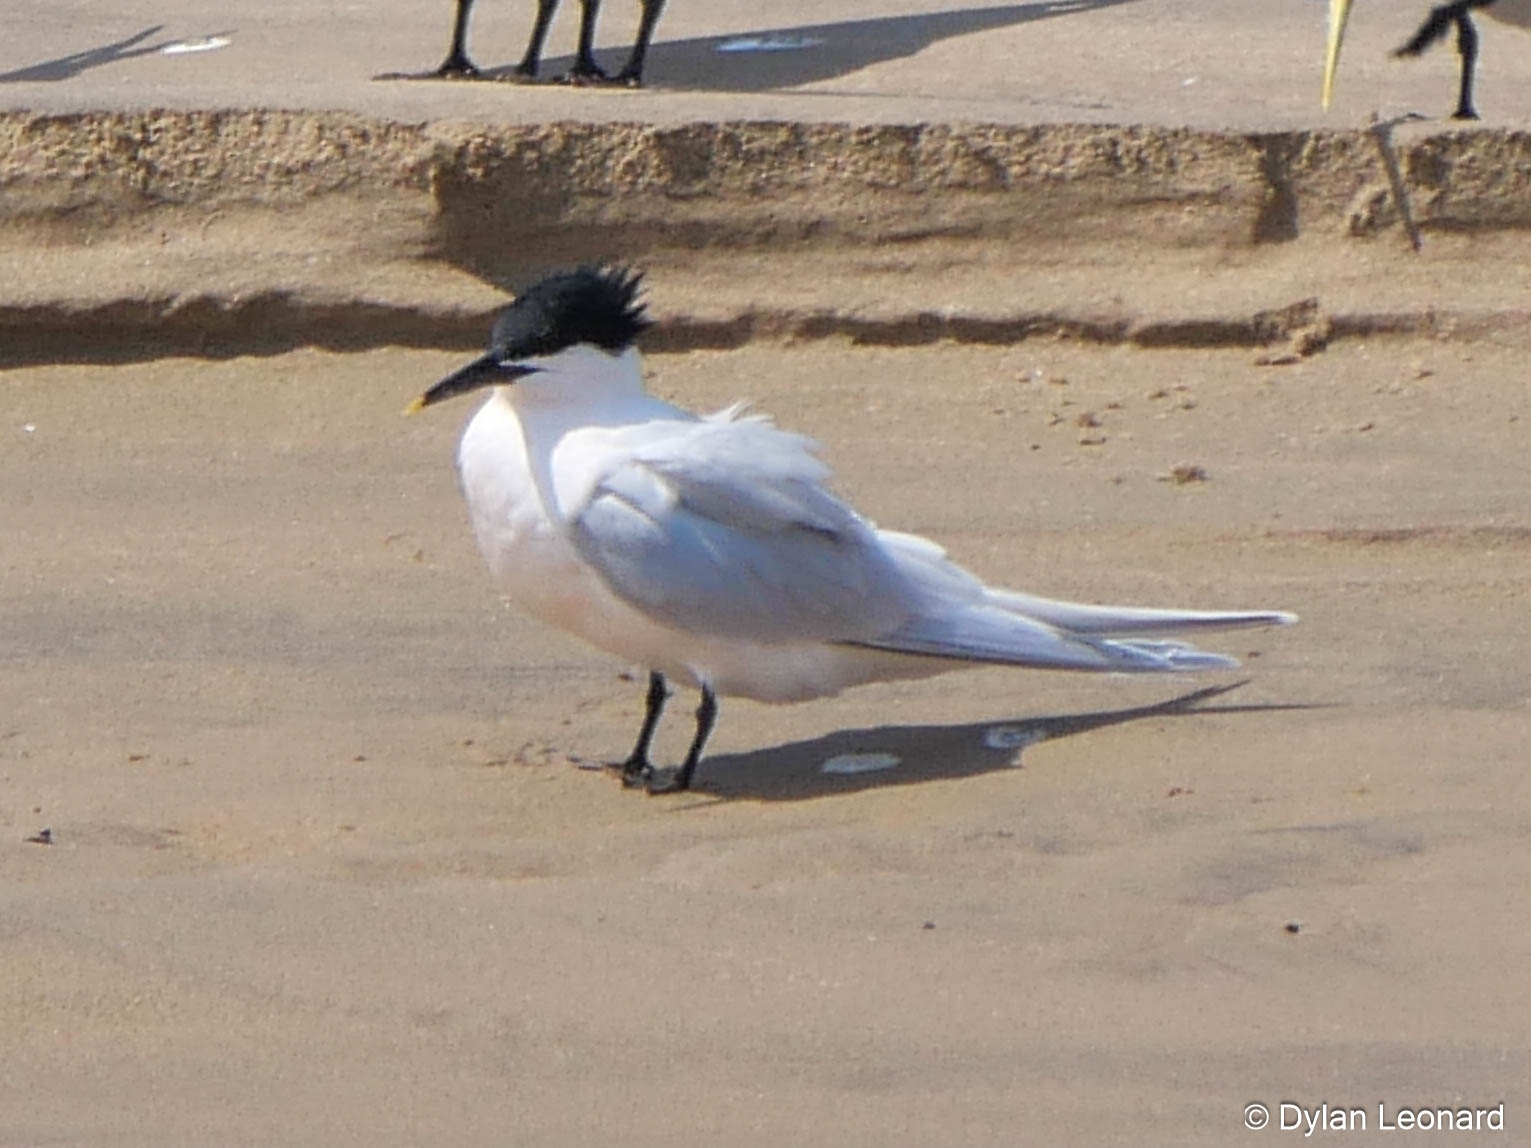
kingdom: Animalia
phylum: Chordata
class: Aves
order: Charadriiformes
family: Laridae
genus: Thalasseus
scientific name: Thalasseus sandvicensis
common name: Sandwich tern
